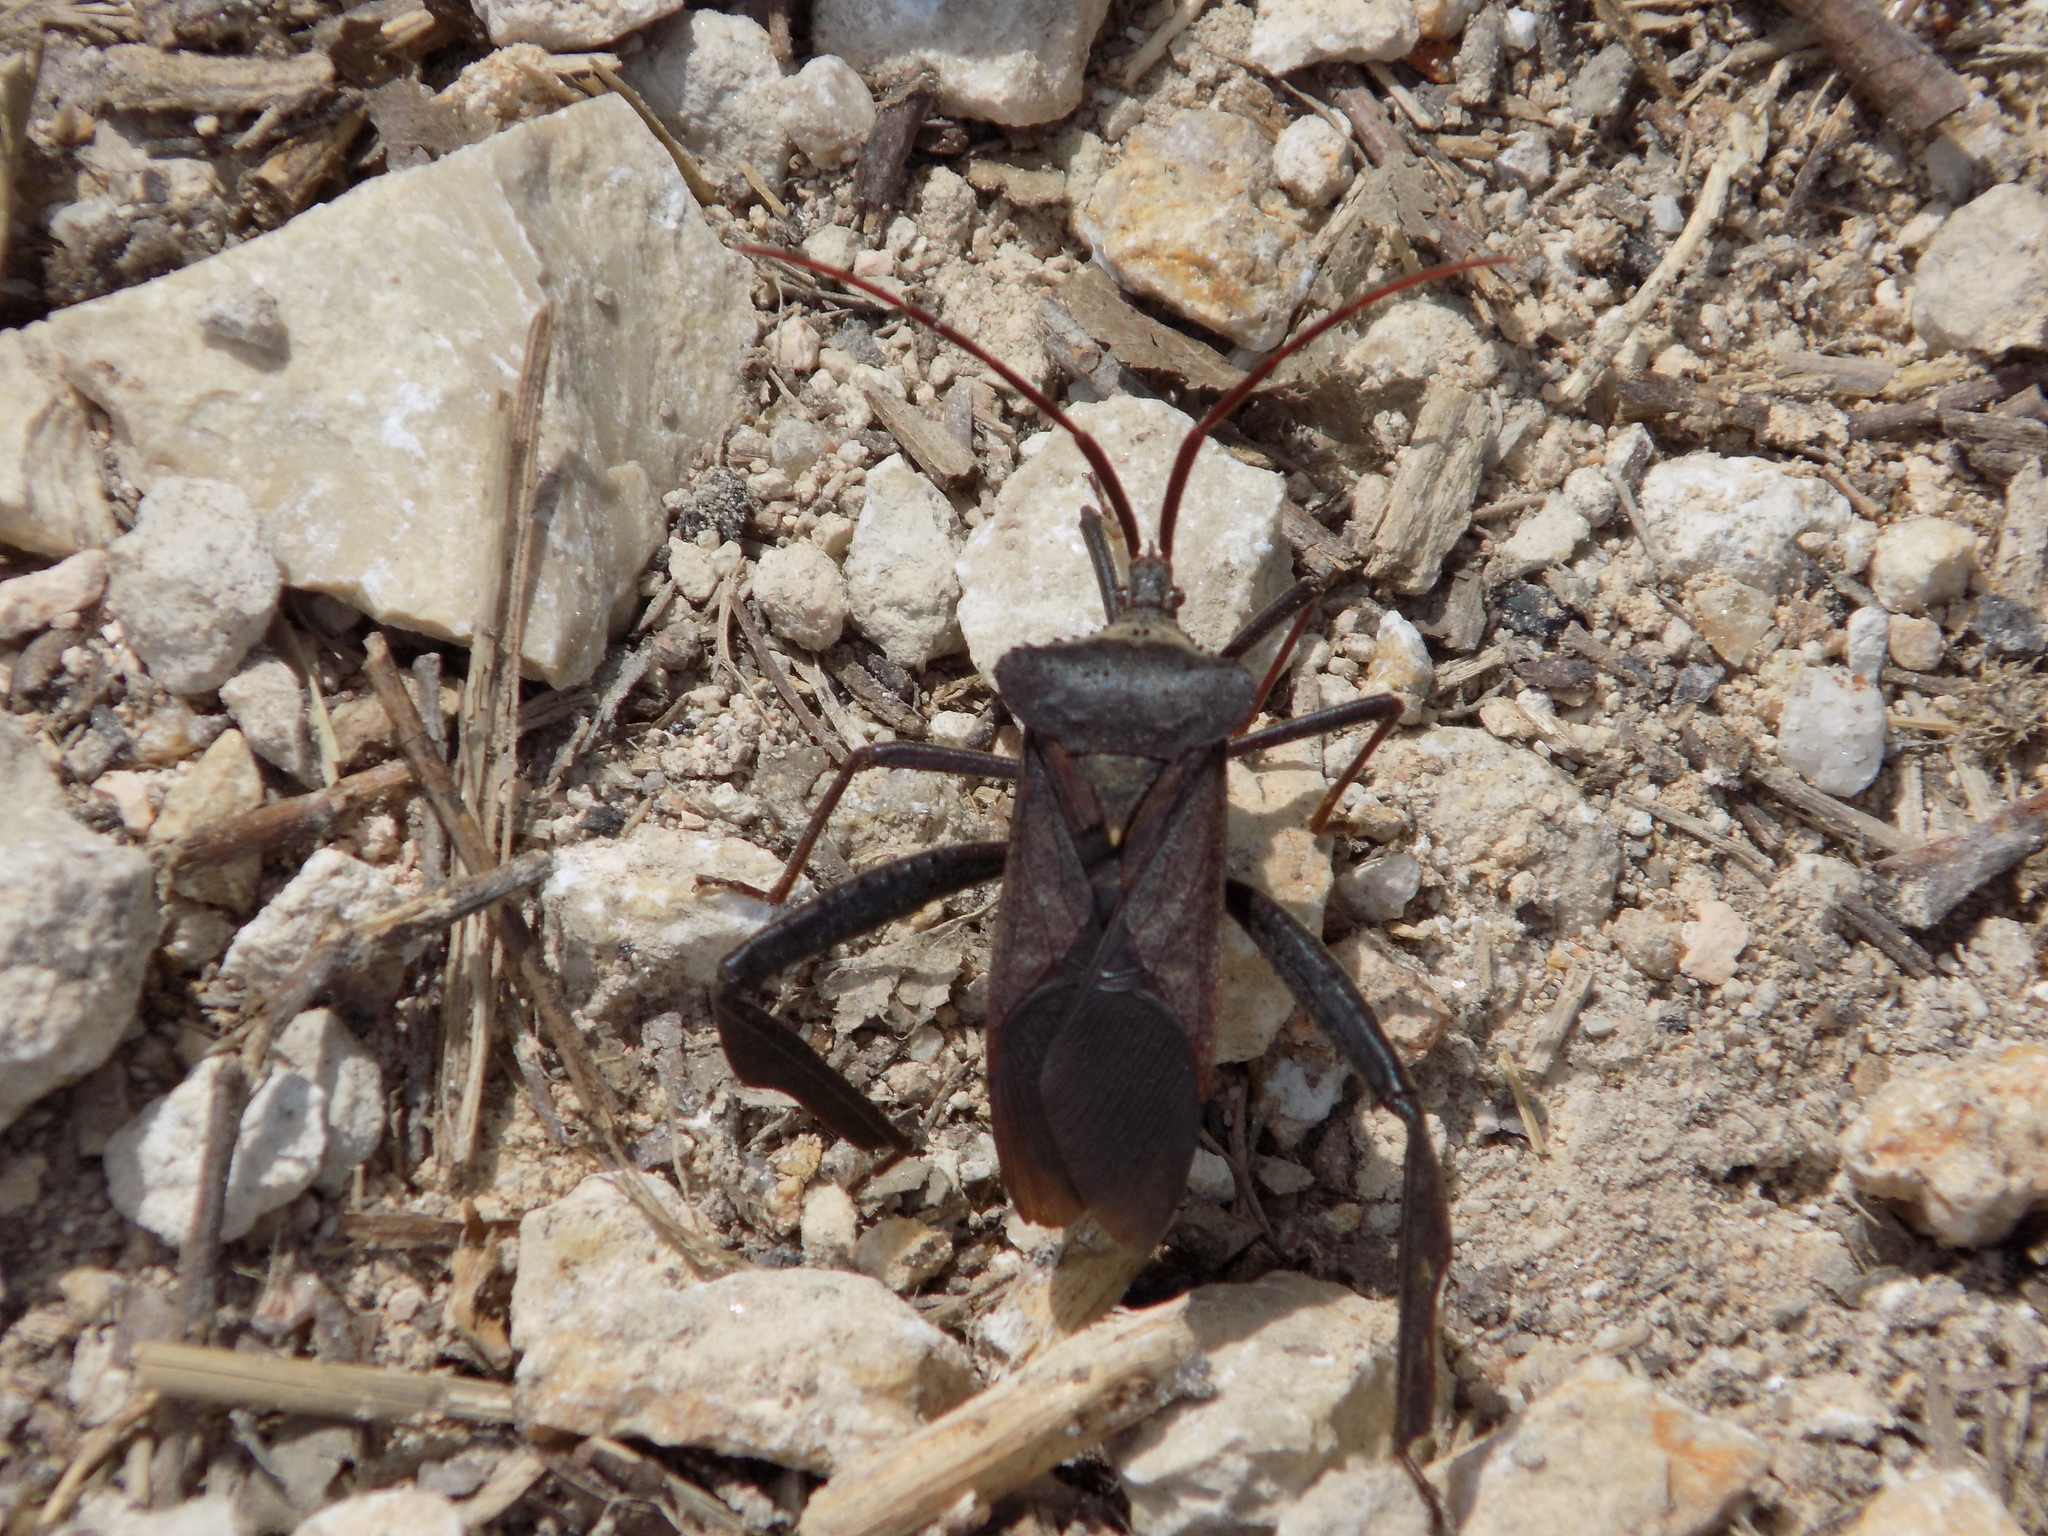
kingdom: Animalia
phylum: Arthropoda
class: Insecta
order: Hemiptera
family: Coreidae
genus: Acanthocephala
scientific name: Acanthocephala declivis
